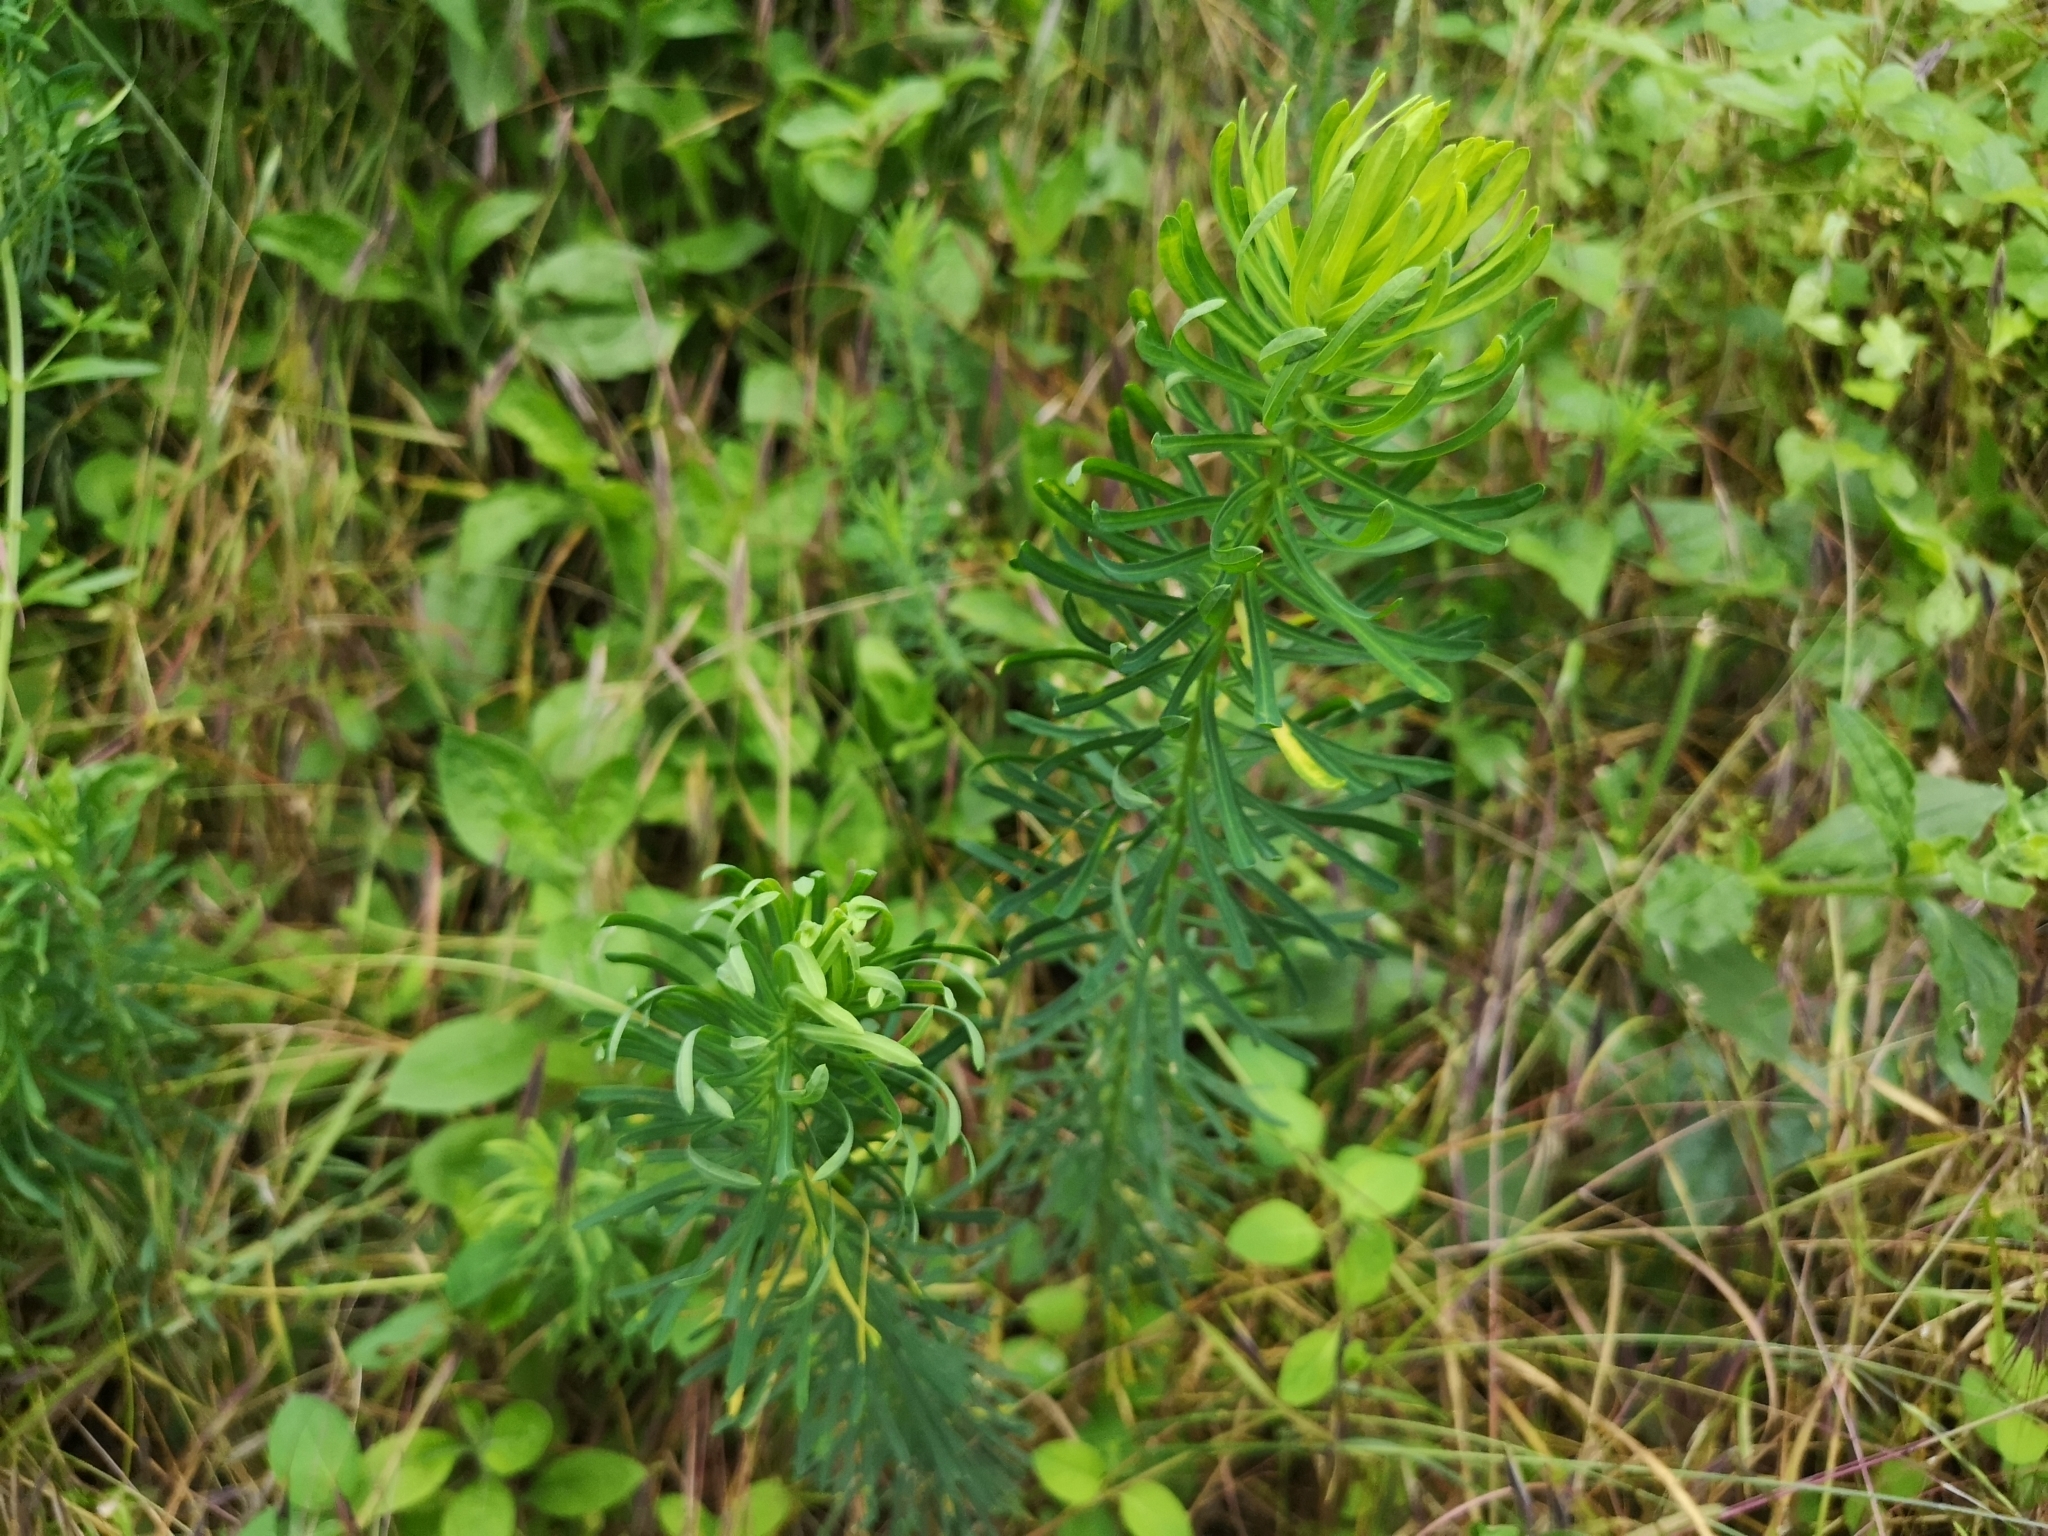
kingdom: Plantae
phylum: Tracheophyta
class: Magnoliopsida
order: Malpighiales
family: Euphorbiaceae
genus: Euphorbia
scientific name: Euphorbia cyparissias
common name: Cypress spurge
